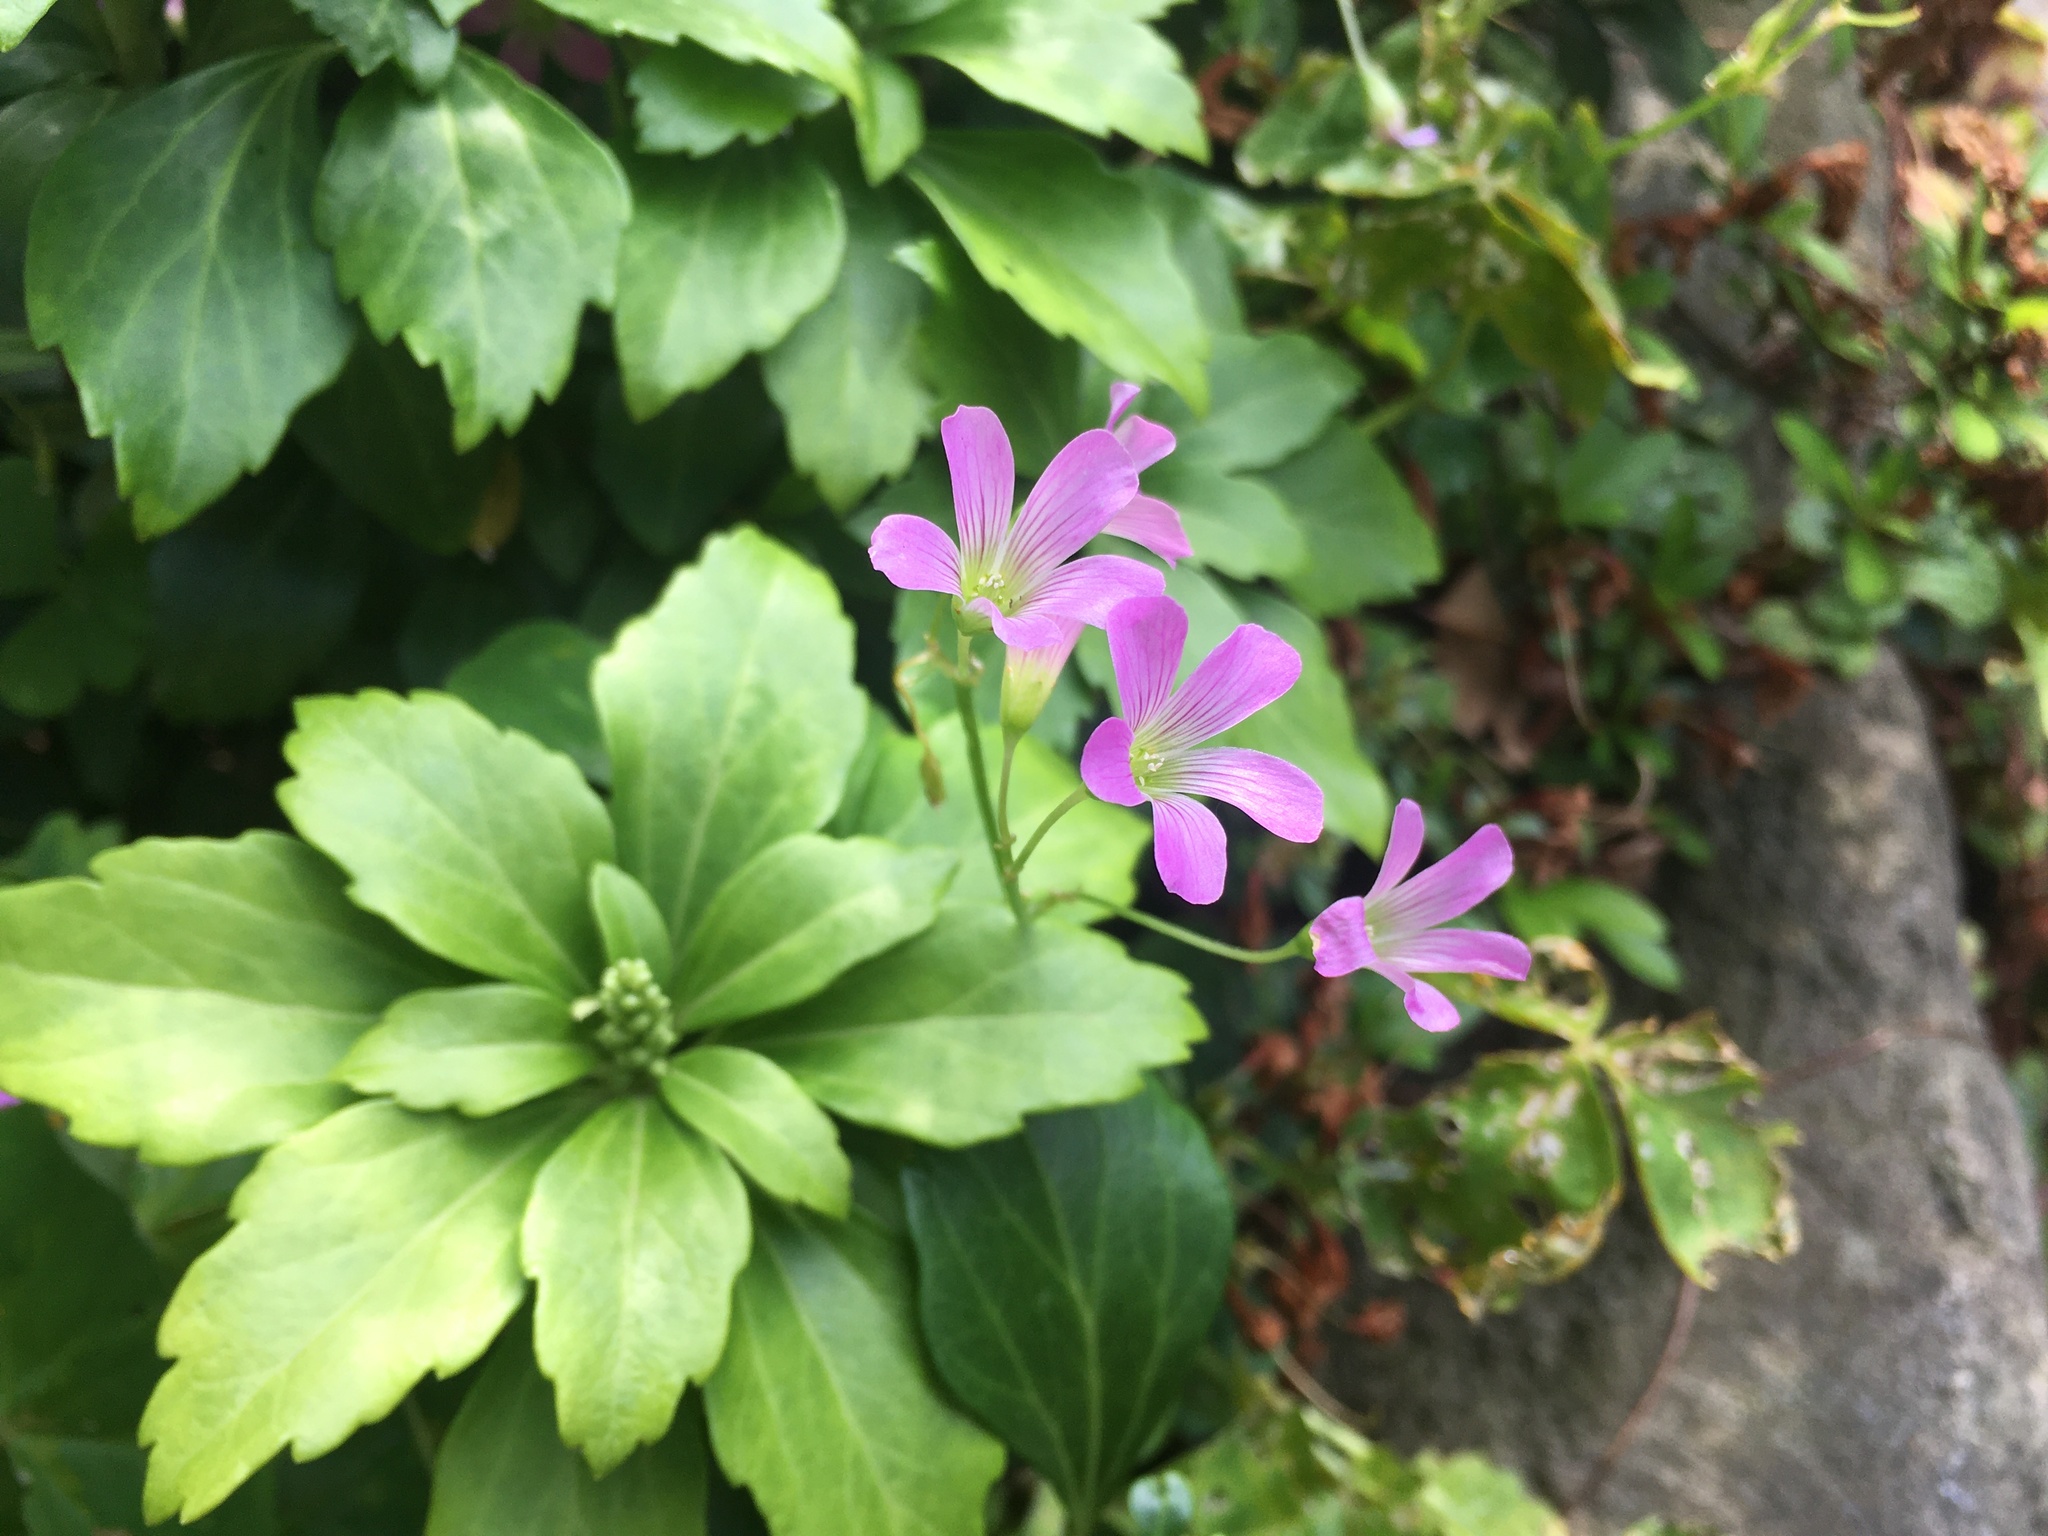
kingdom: Plantae
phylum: Tracheophyta
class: Magnoliopsida
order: Oxalidales
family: Oxalidaceae
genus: Oxalis
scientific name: Oxalis debilis
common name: Large-flowered pink-sorrel
